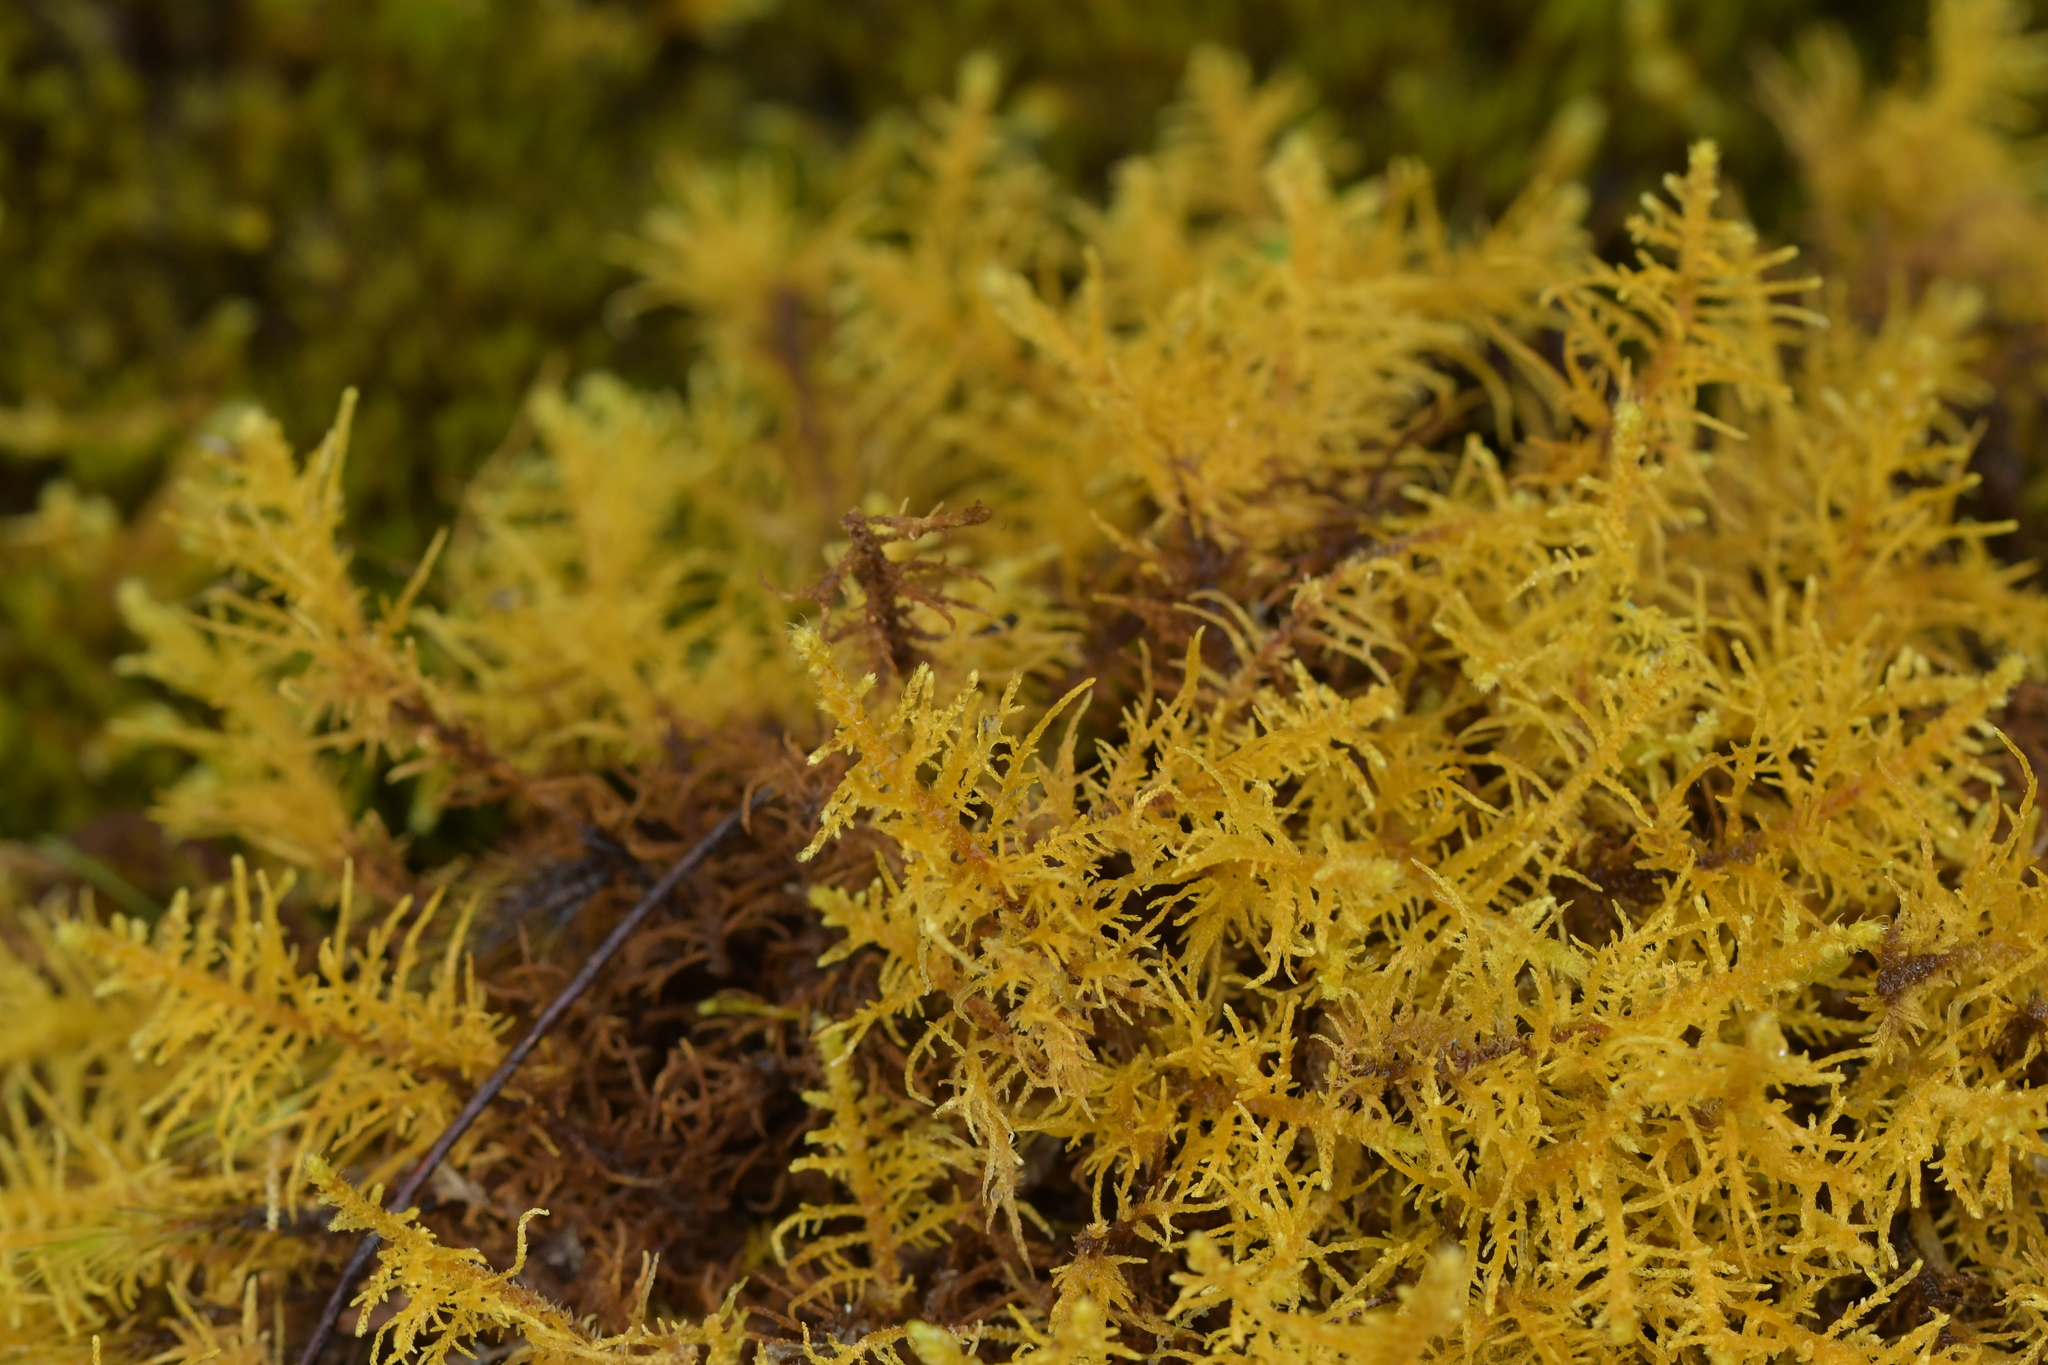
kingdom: Plantae
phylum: Bryophyta
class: Bryopsida
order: Hypnales
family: Thuidiaceae
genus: Thuidiopsis
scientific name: Thuidiopsis furfurosa
